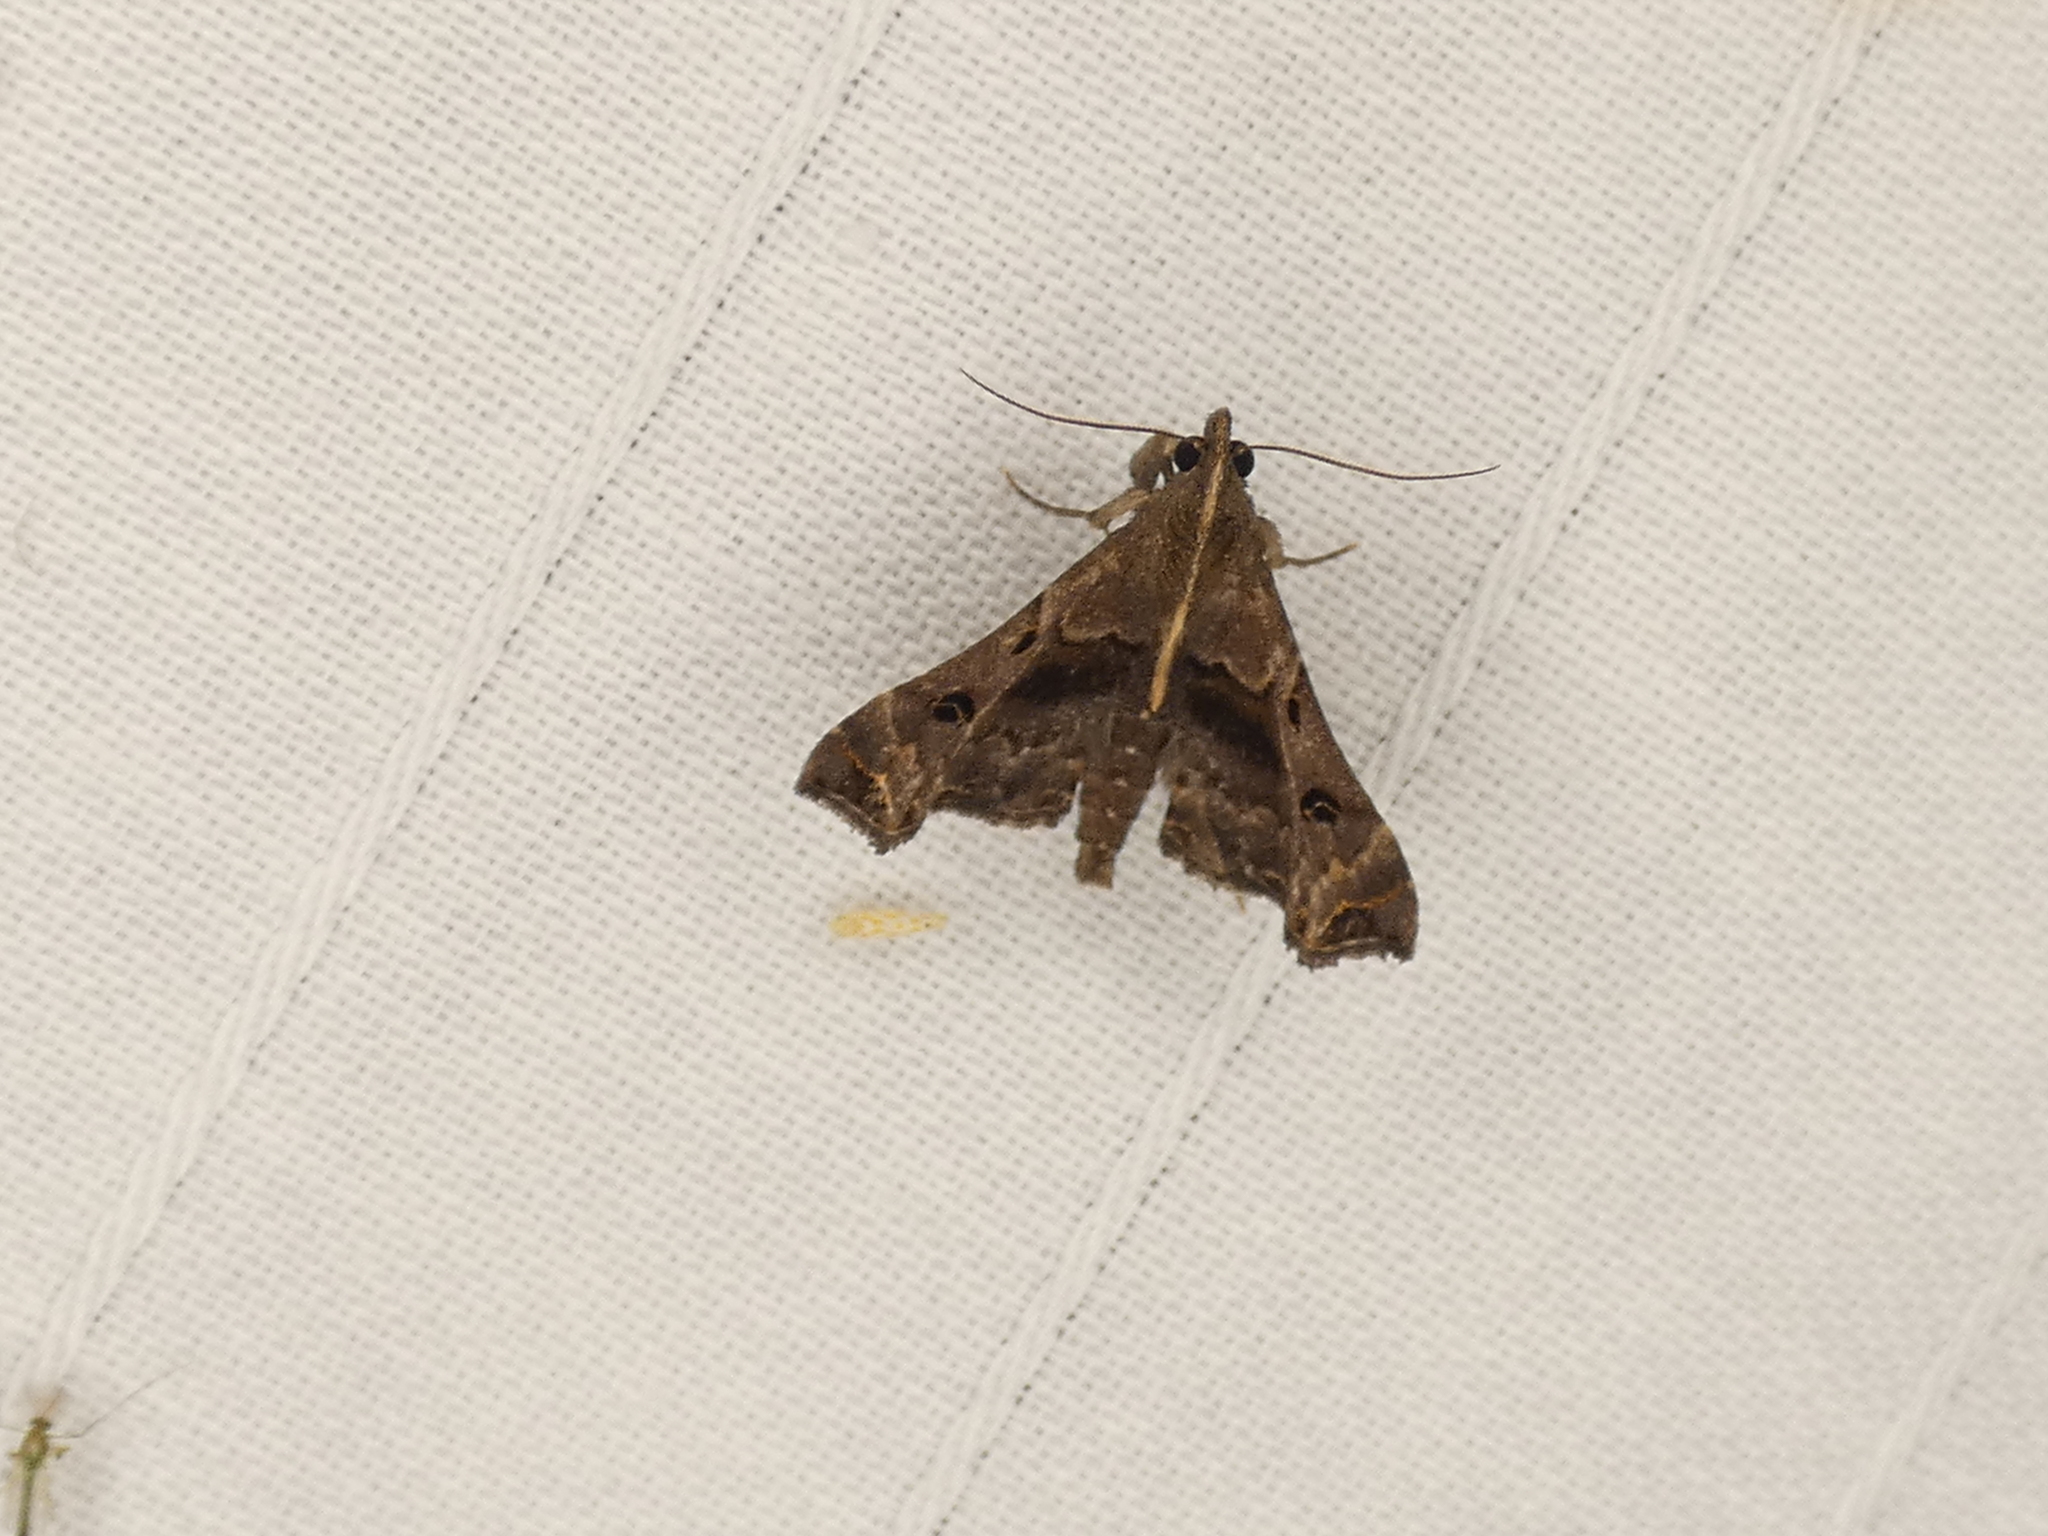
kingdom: Animalia
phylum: Arthropoda
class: Insecta
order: Lepidoptera
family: Erebidae
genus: Palthis
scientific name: Palthis asopialis
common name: Faint-spotted palthis moth
